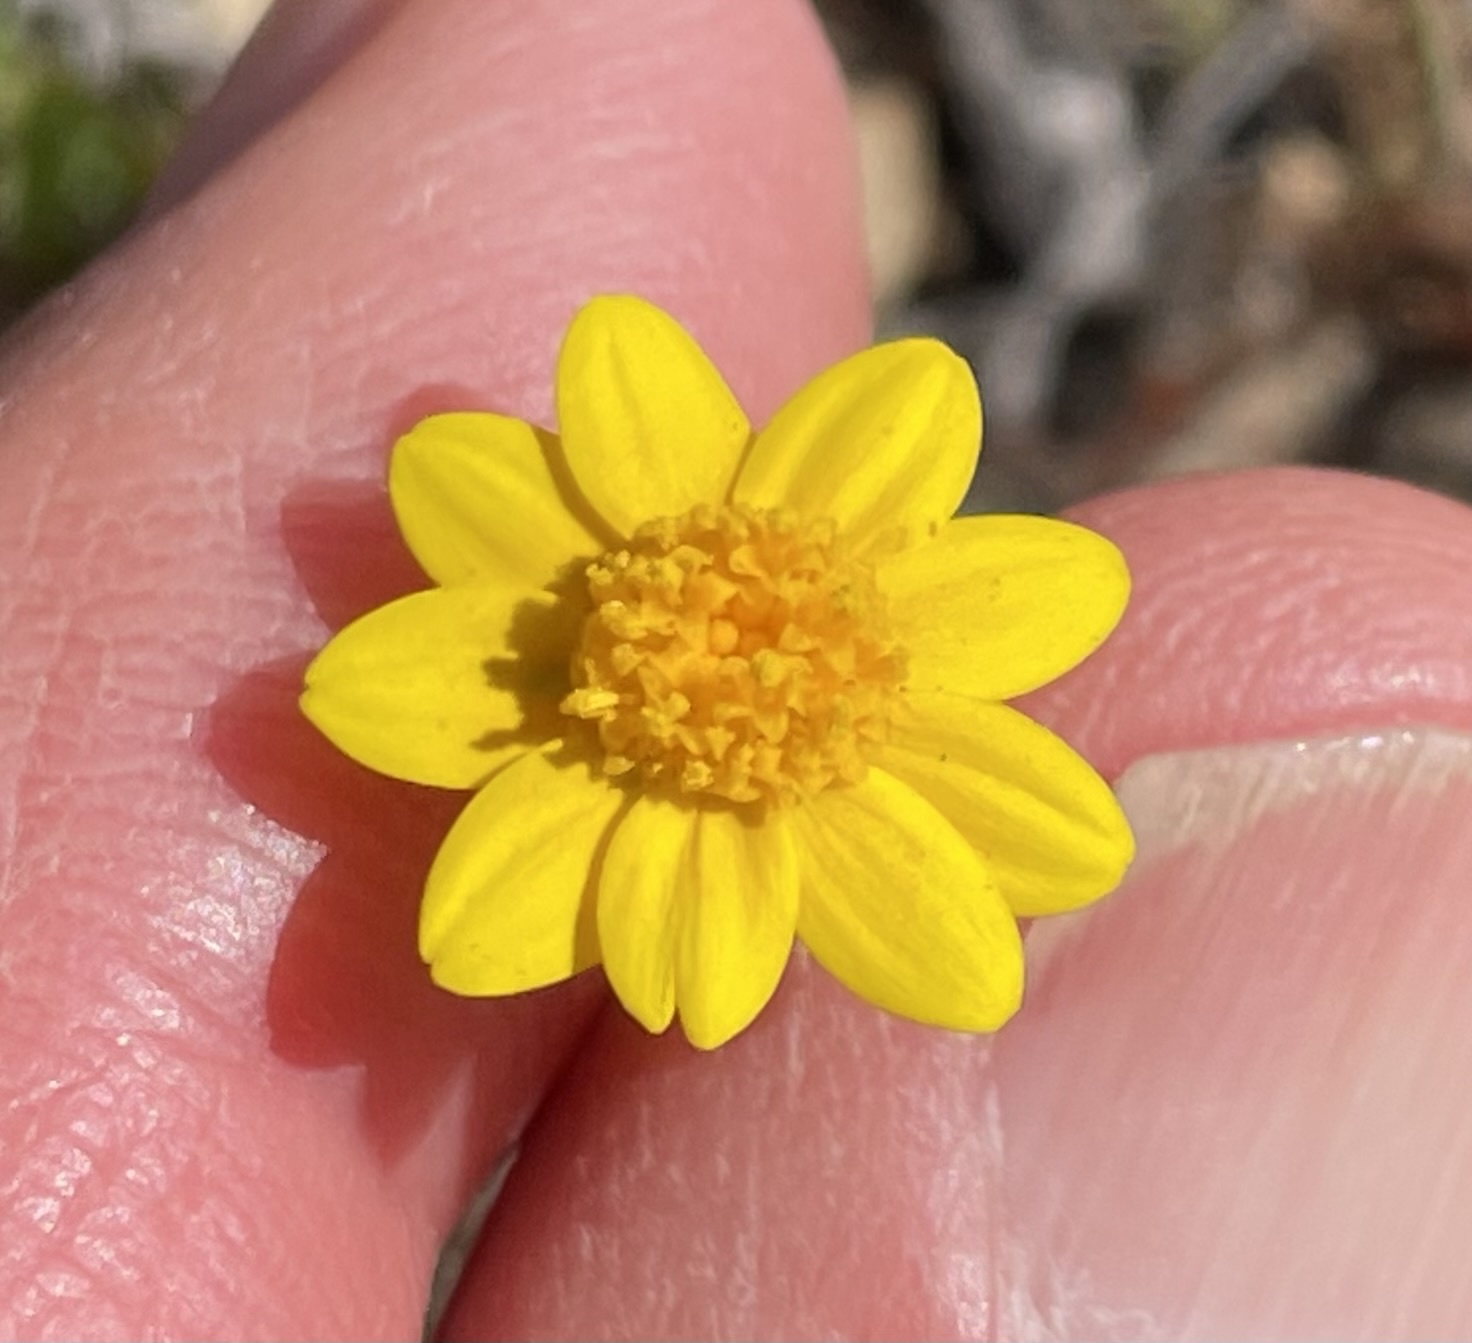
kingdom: Plantae
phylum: Tracheophyta
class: Magnoliopsida
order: Asterales
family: Asteraceae
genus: Lasthenia
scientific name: Lasthenia gracilis
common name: Common goldfields
